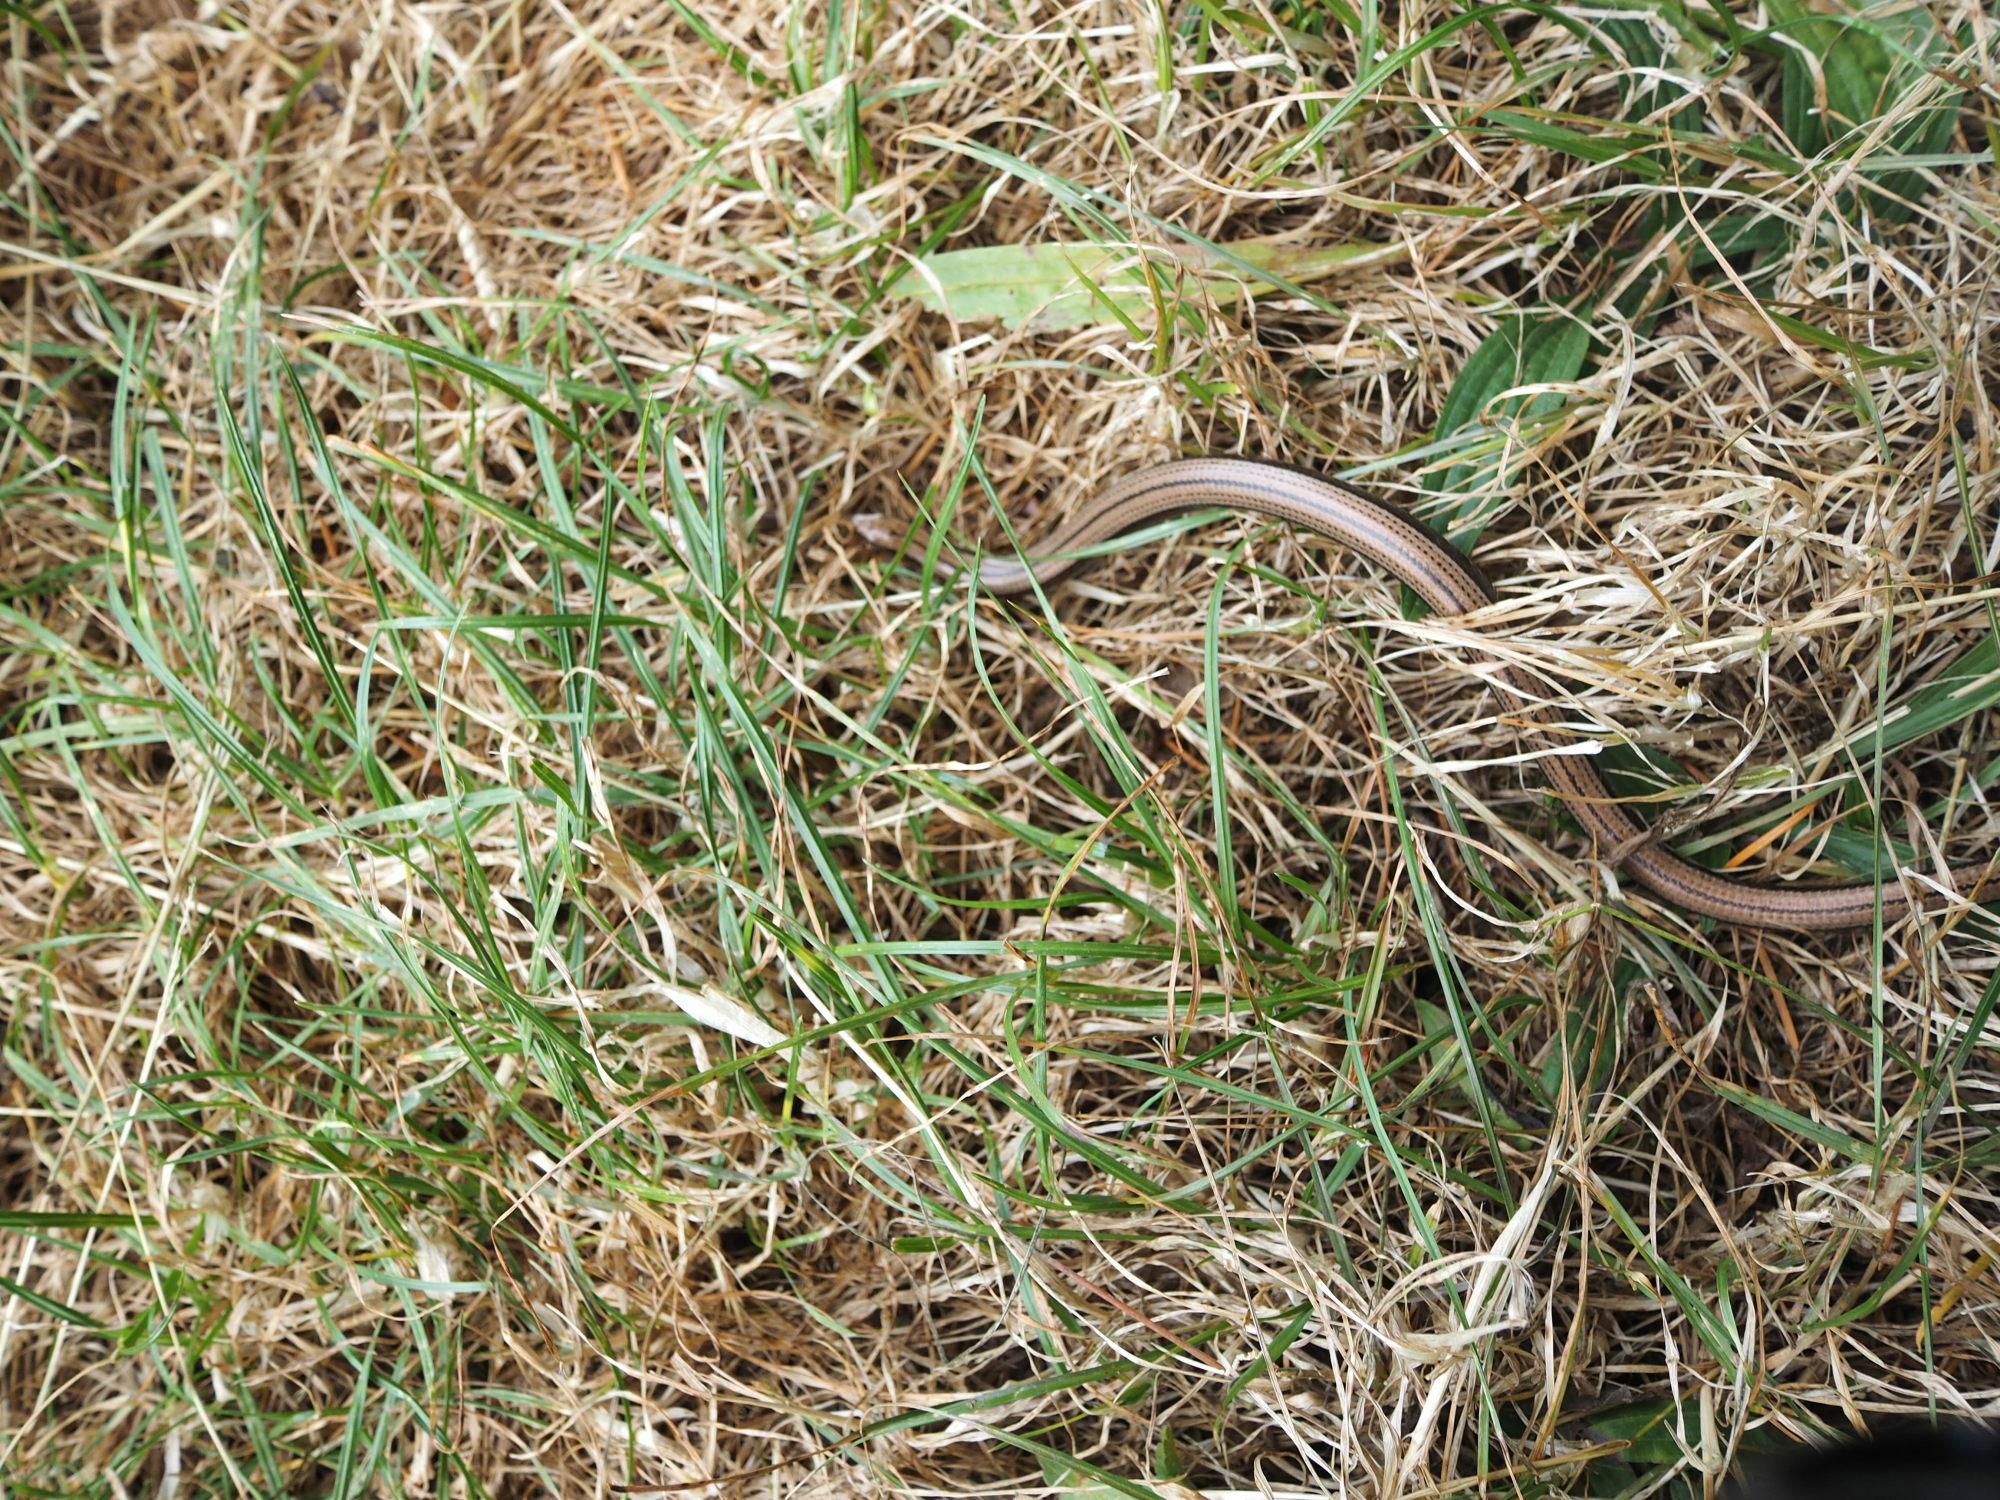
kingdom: Animalia
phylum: Chordata
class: Squamata
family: Anguidae
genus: Anguis
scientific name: Anguis fragilis
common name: Slow worm
